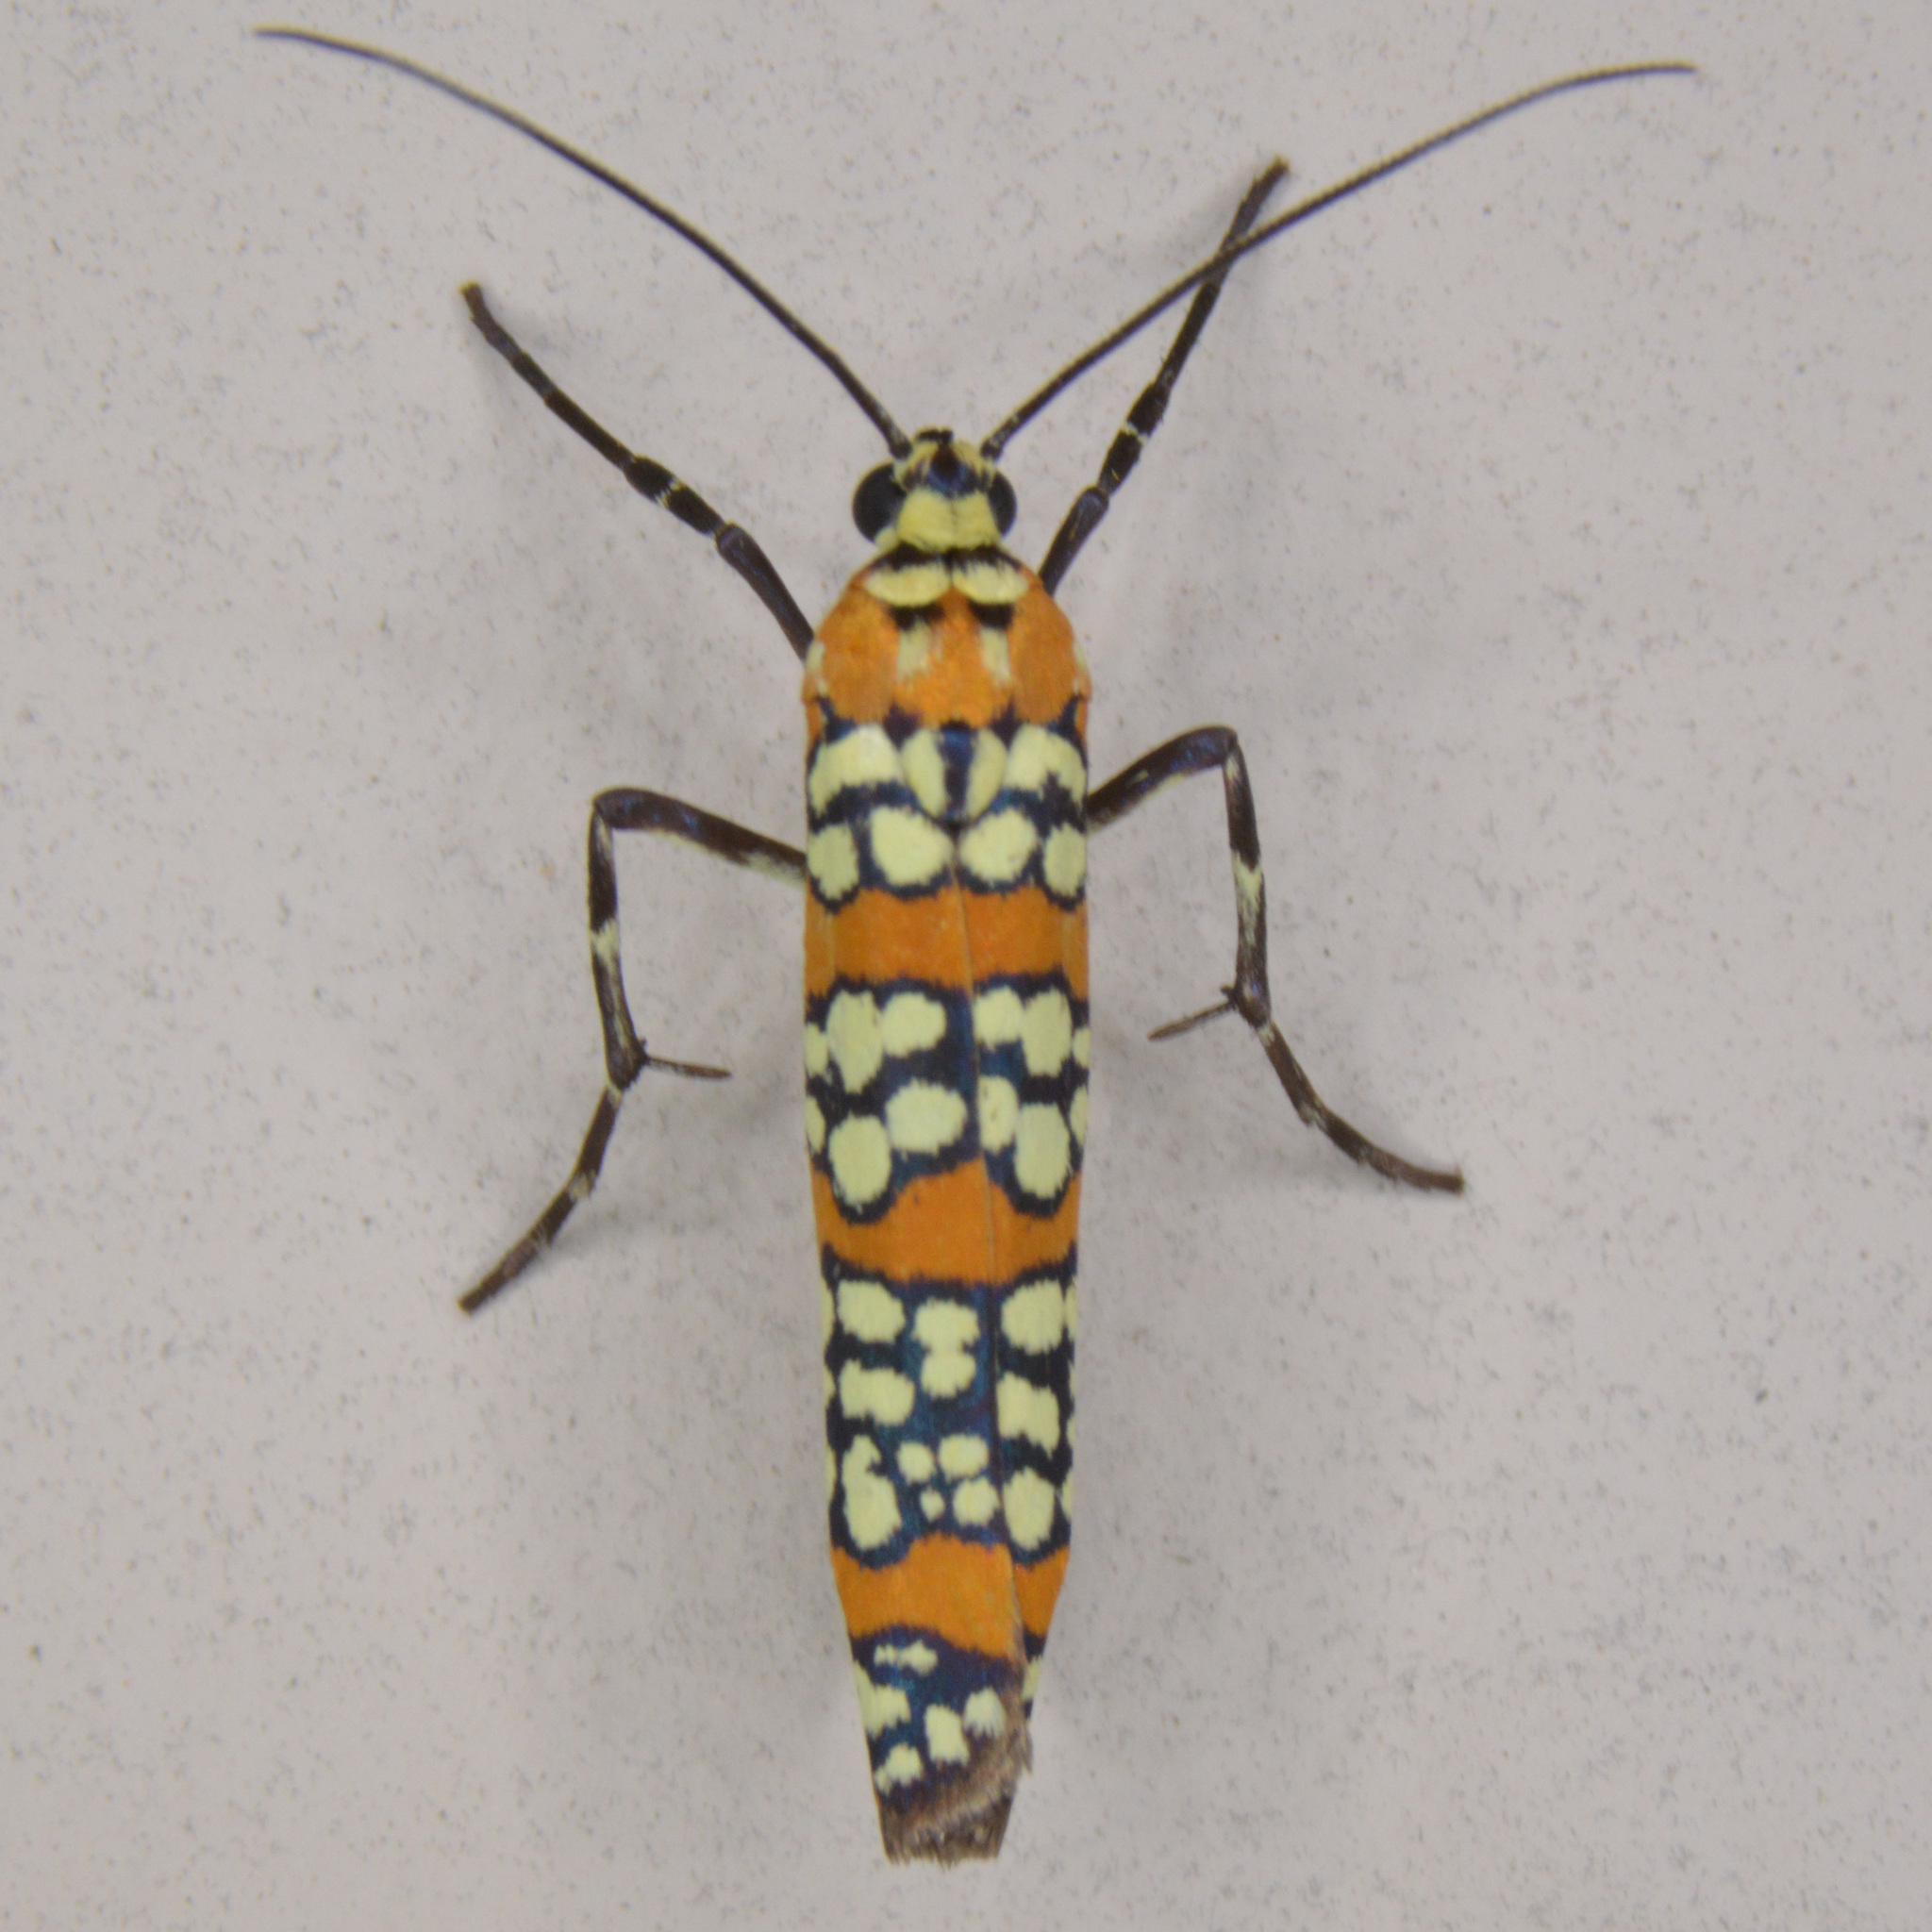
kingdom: Animalia
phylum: Arthropoda
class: Insecta
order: Lepidoptera
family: Attevidae
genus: Atteva
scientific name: Atteva punctella
